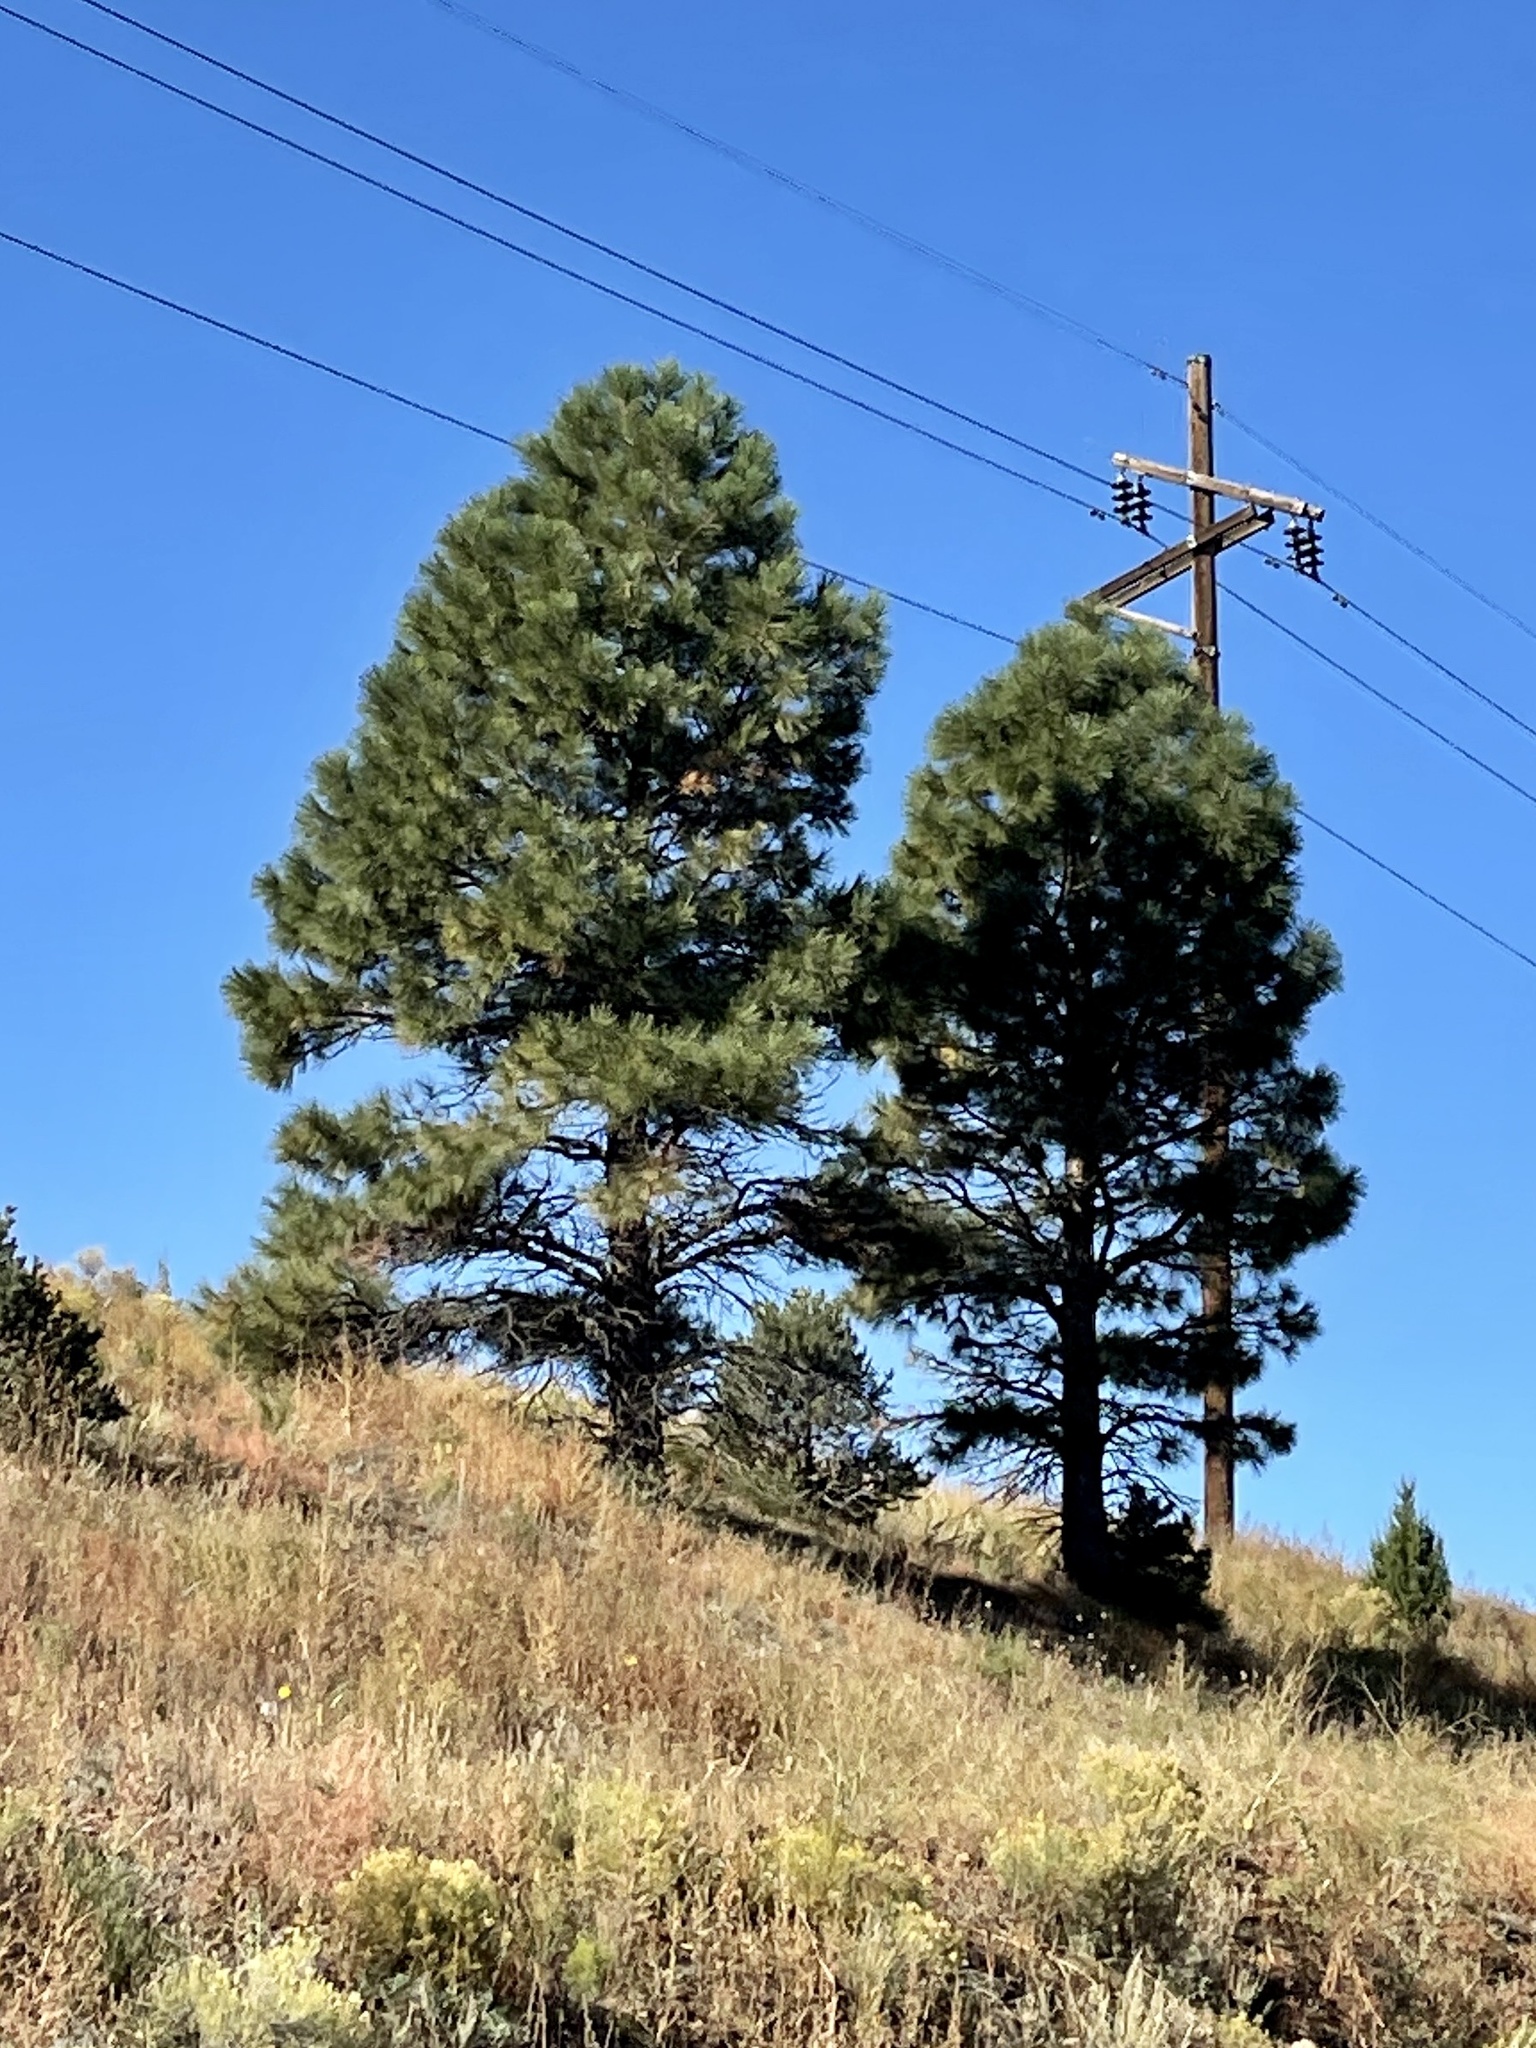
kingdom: Plantae
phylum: Tracheophyta
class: Pinopsida
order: Pinales
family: Pinaceae
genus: Pinus
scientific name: Pinus ponderosa
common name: Western yellow-pine
